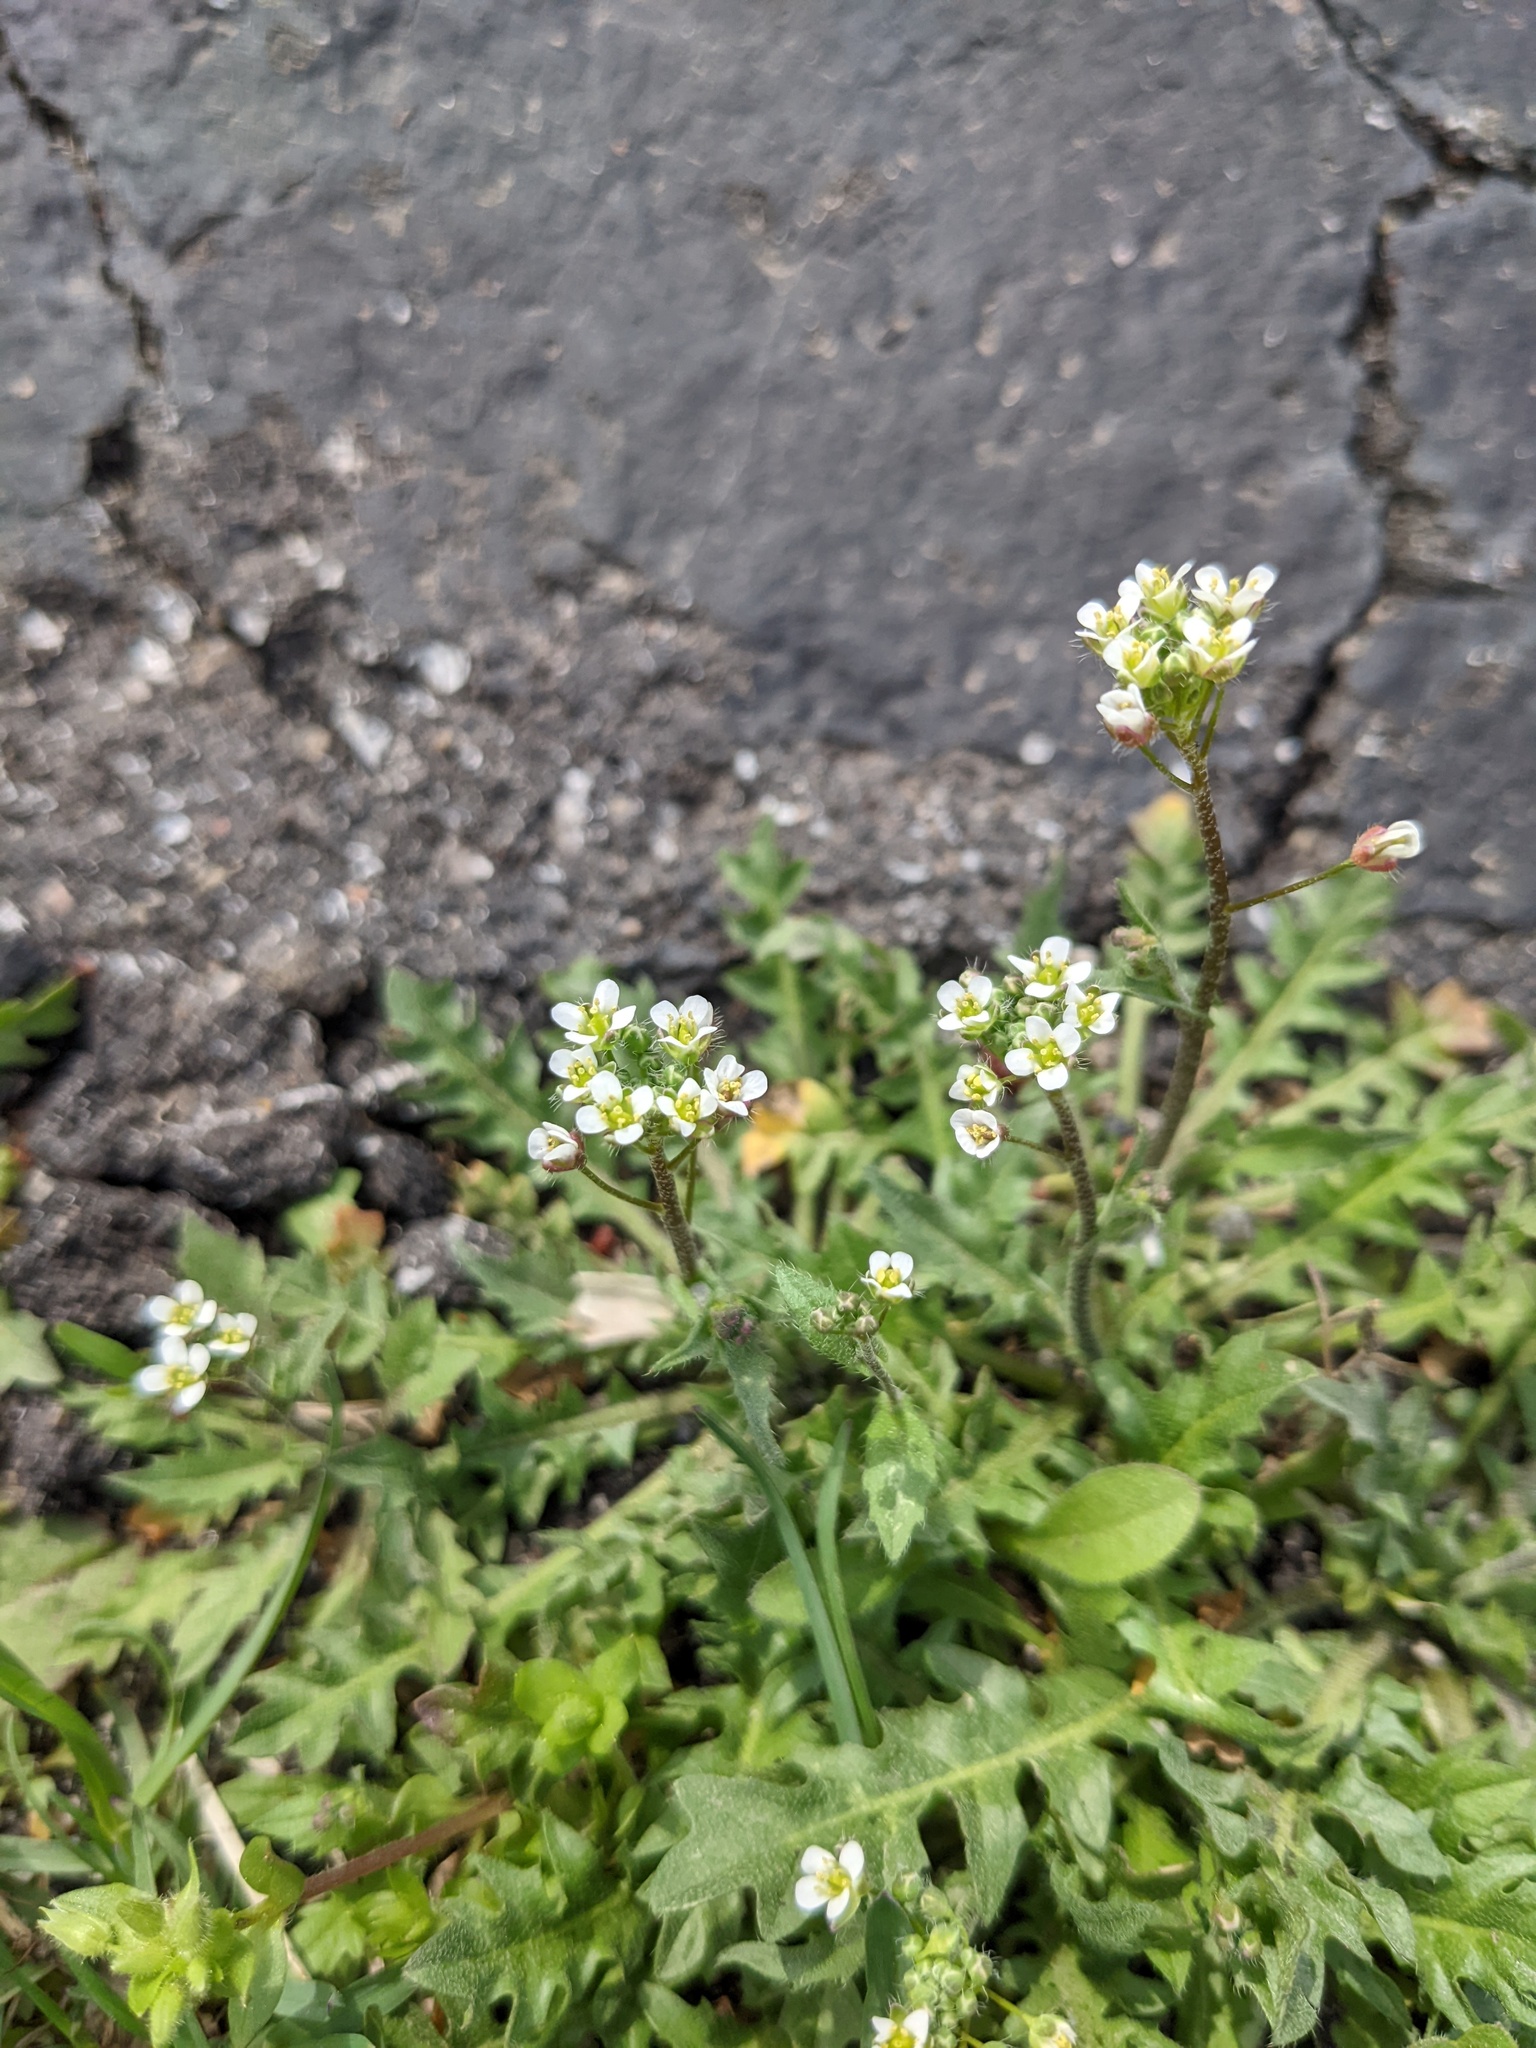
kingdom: Plantae
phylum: Tracheophyta
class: Magnoliopsida
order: Brassicales
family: Brassicaceae
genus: Capsella
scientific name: Capsella bursa-pastoris
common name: Shepherd's purse
